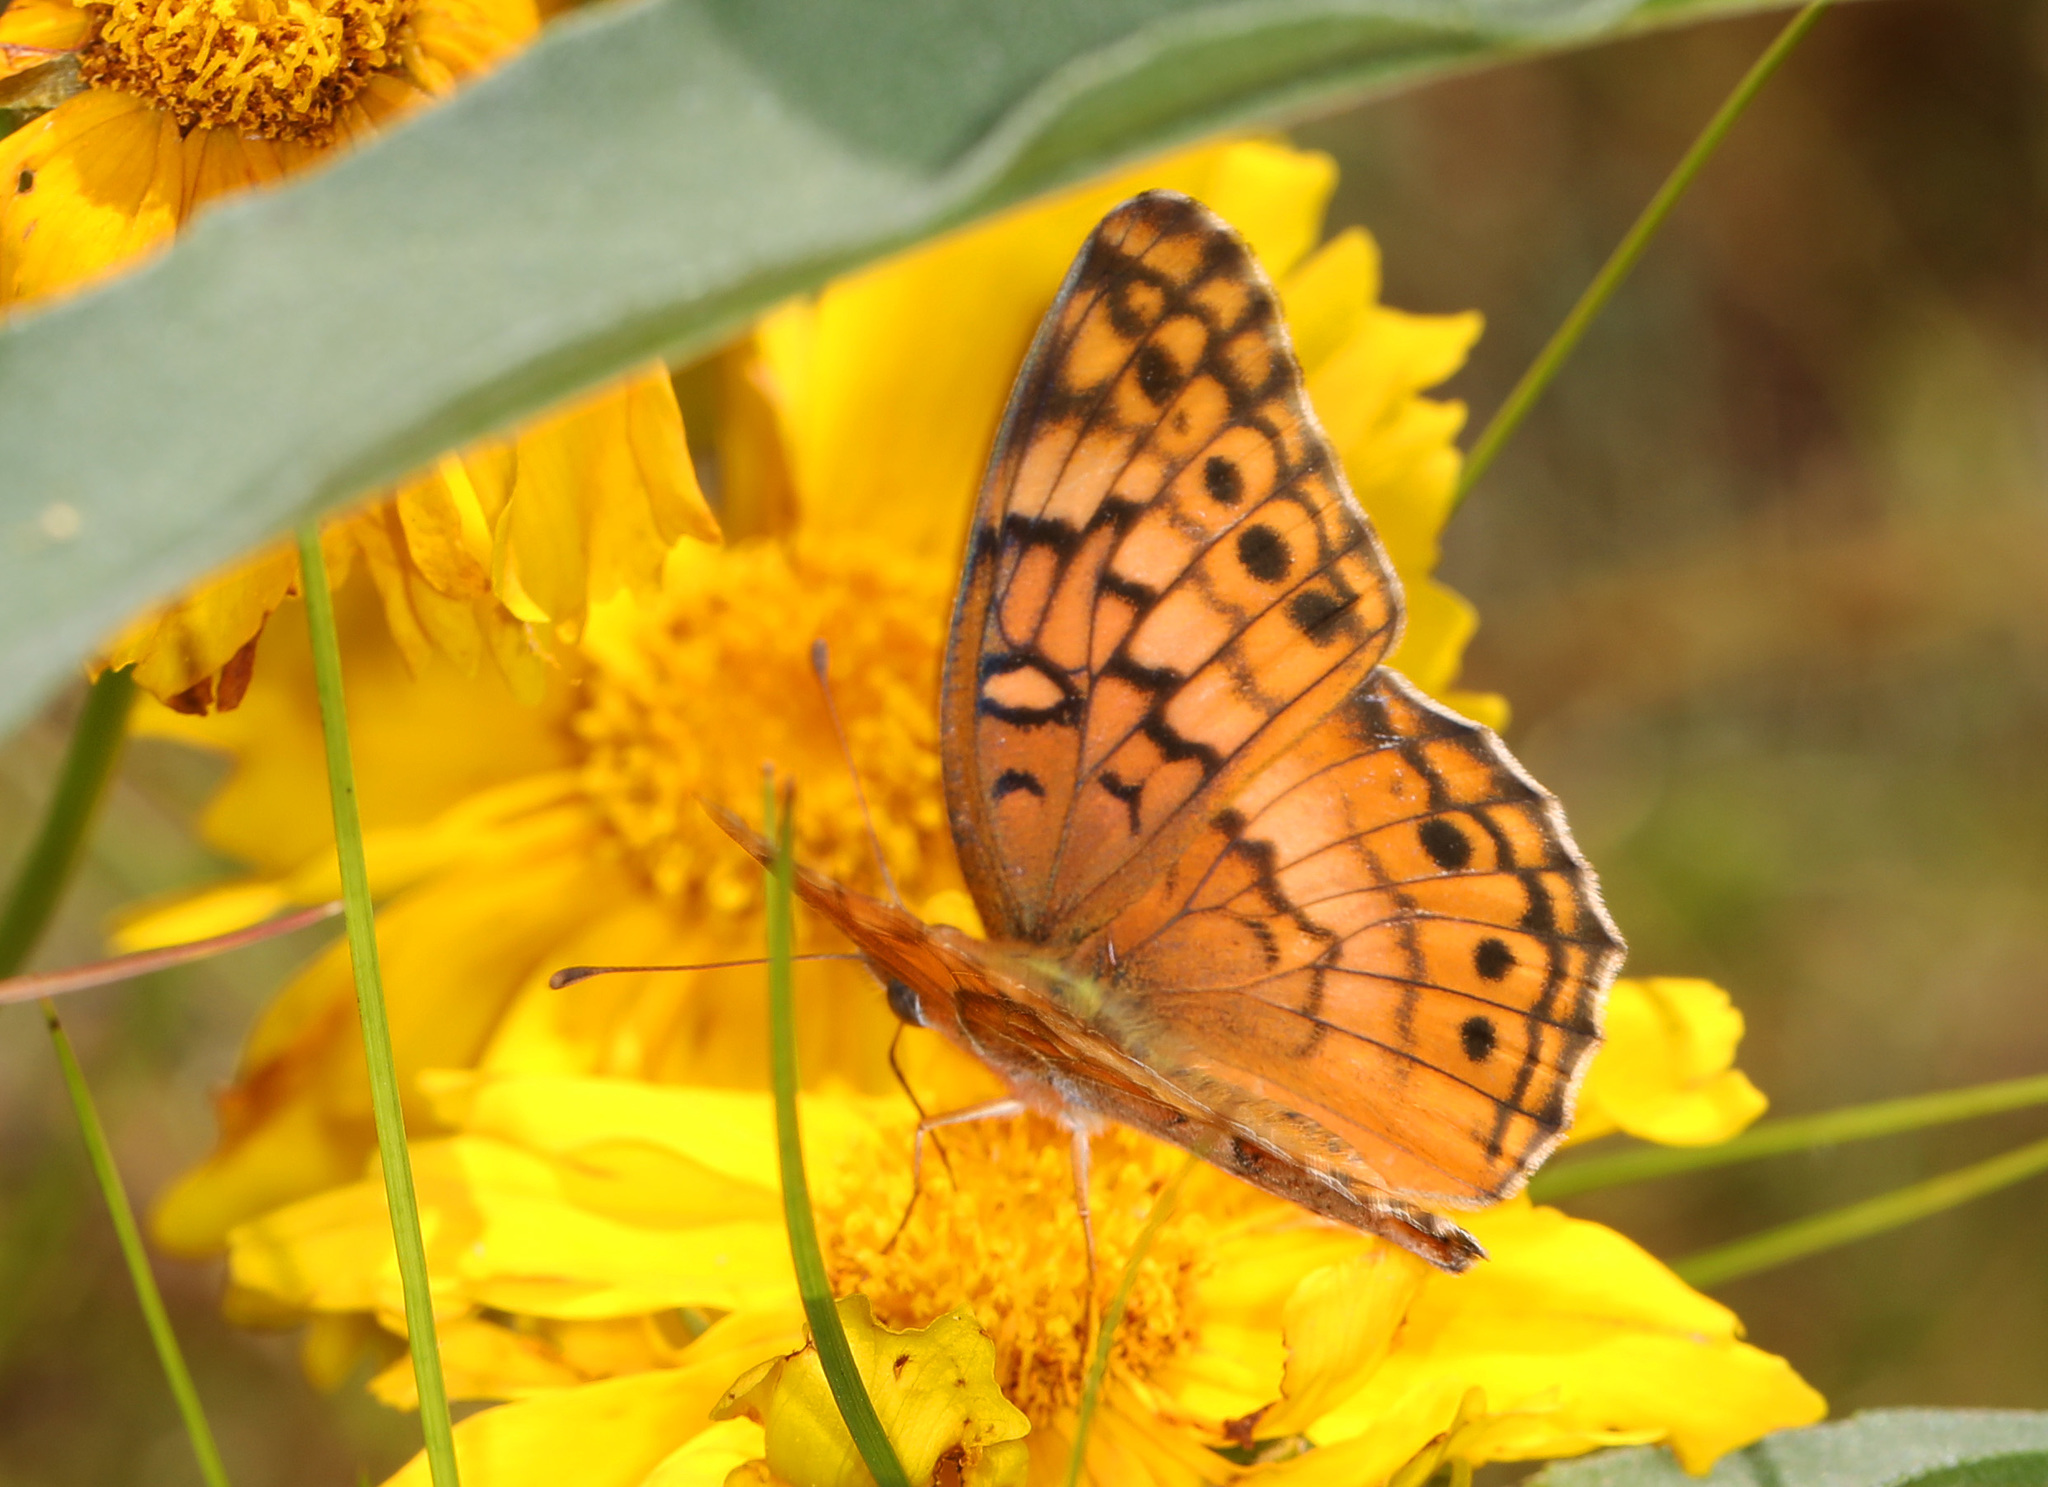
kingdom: Animalia
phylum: Arthropoda
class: Insecta
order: Lepidoptera
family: Nymphalidae
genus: Euptoieta
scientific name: Euptoieta claudia
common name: Variegated fritillary
